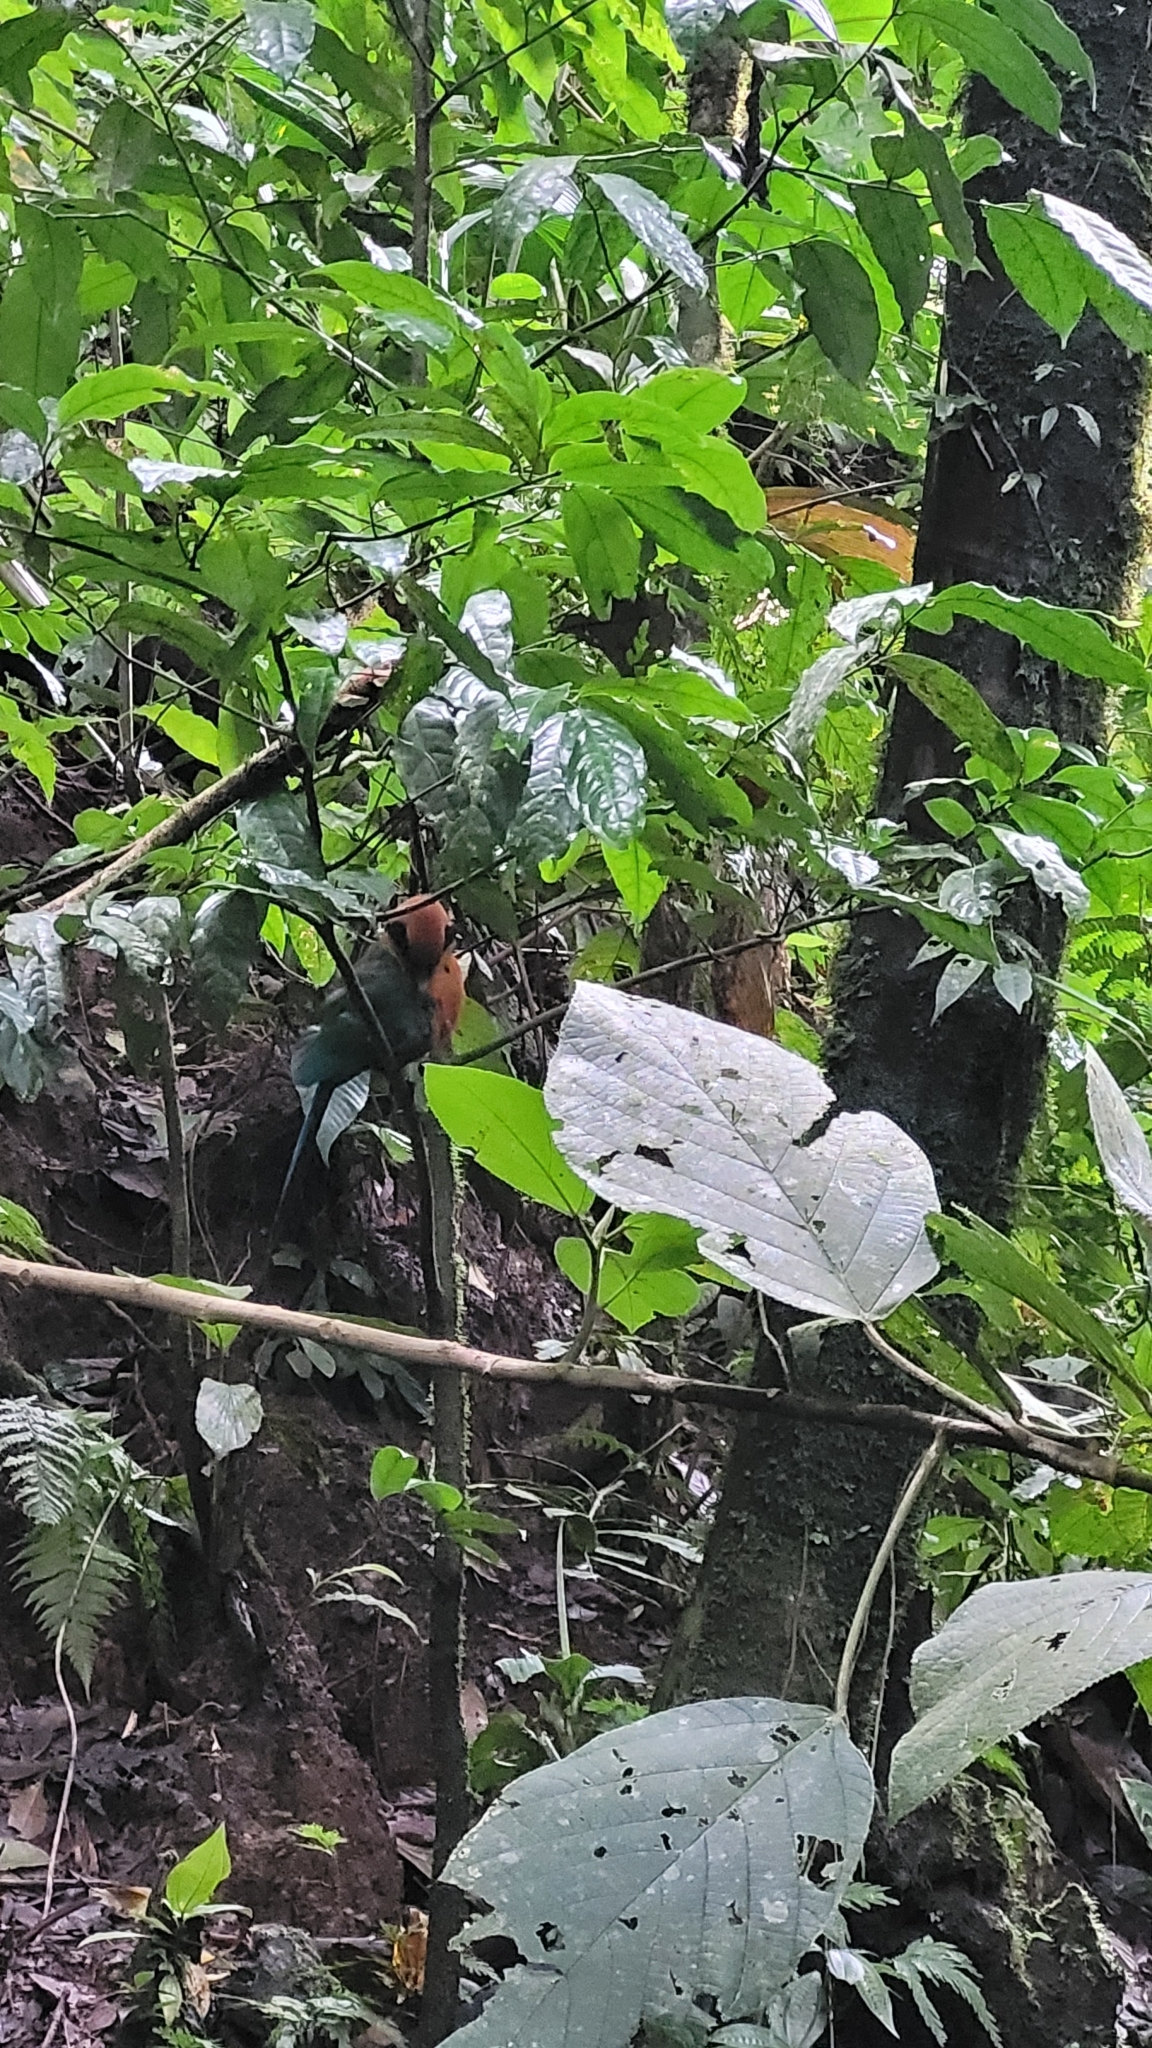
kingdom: Animalia
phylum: Chordata
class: Aves
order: Coraciiformes
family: Momotidae
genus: Baryphthengus
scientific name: Baryphthengus martii
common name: Rufous motmot
